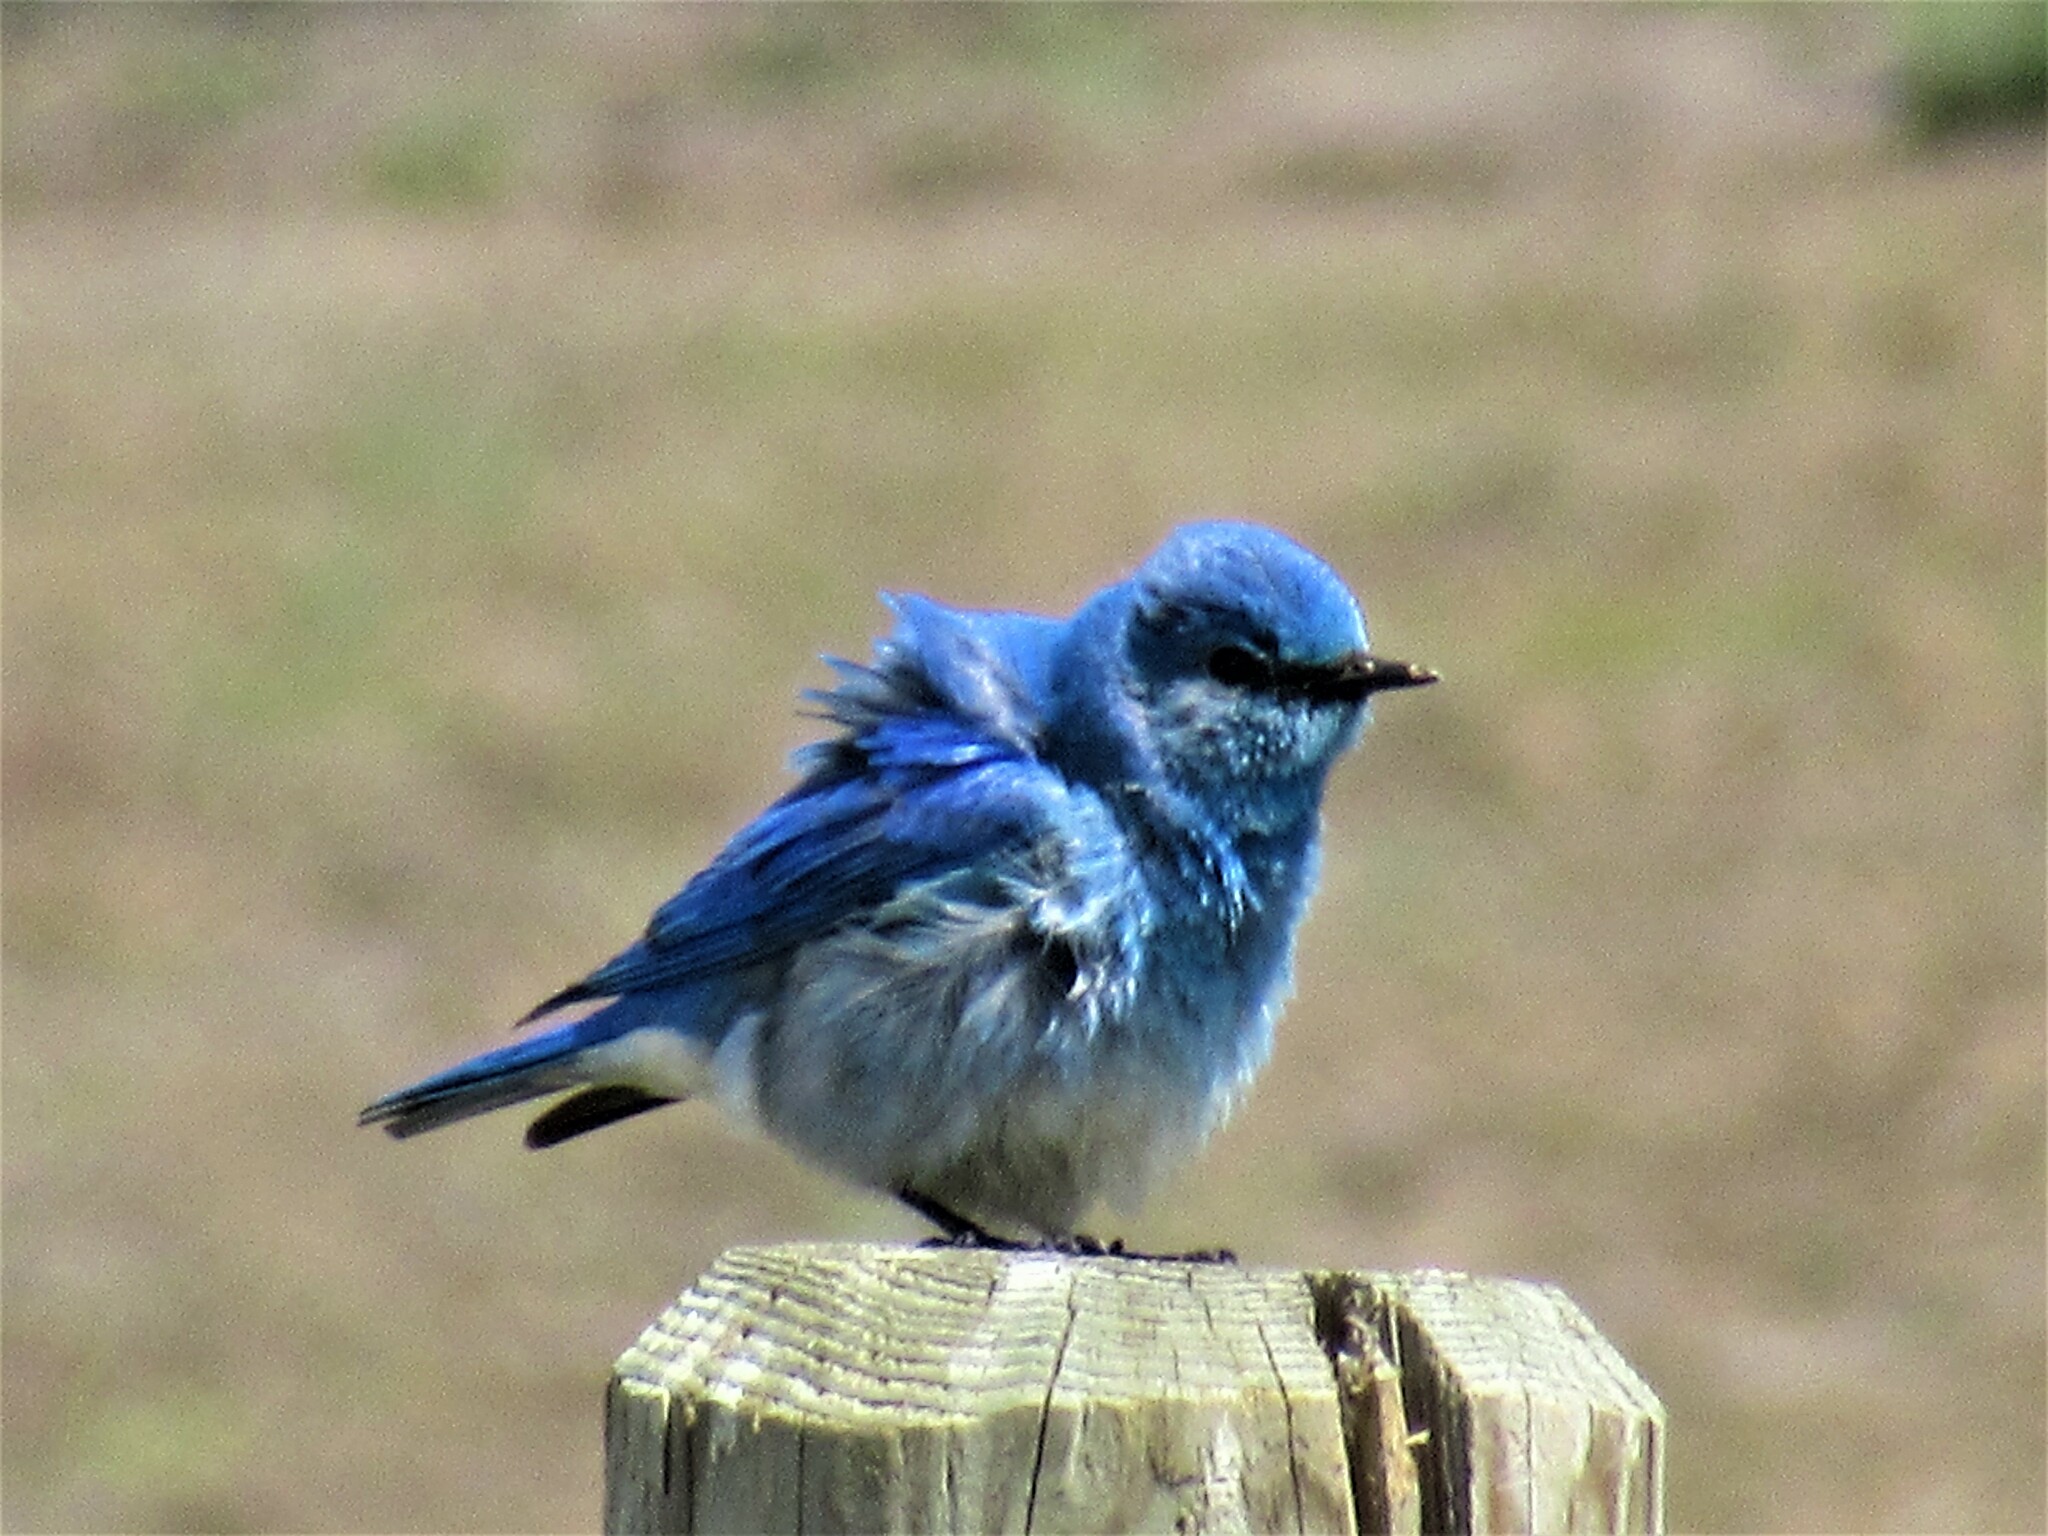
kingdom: Animalia
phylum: Chordata
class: Aves
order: Passeriformes
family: Turdidae
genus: Sialia
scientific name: Sialia currucoides
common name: Mountain bluebird
